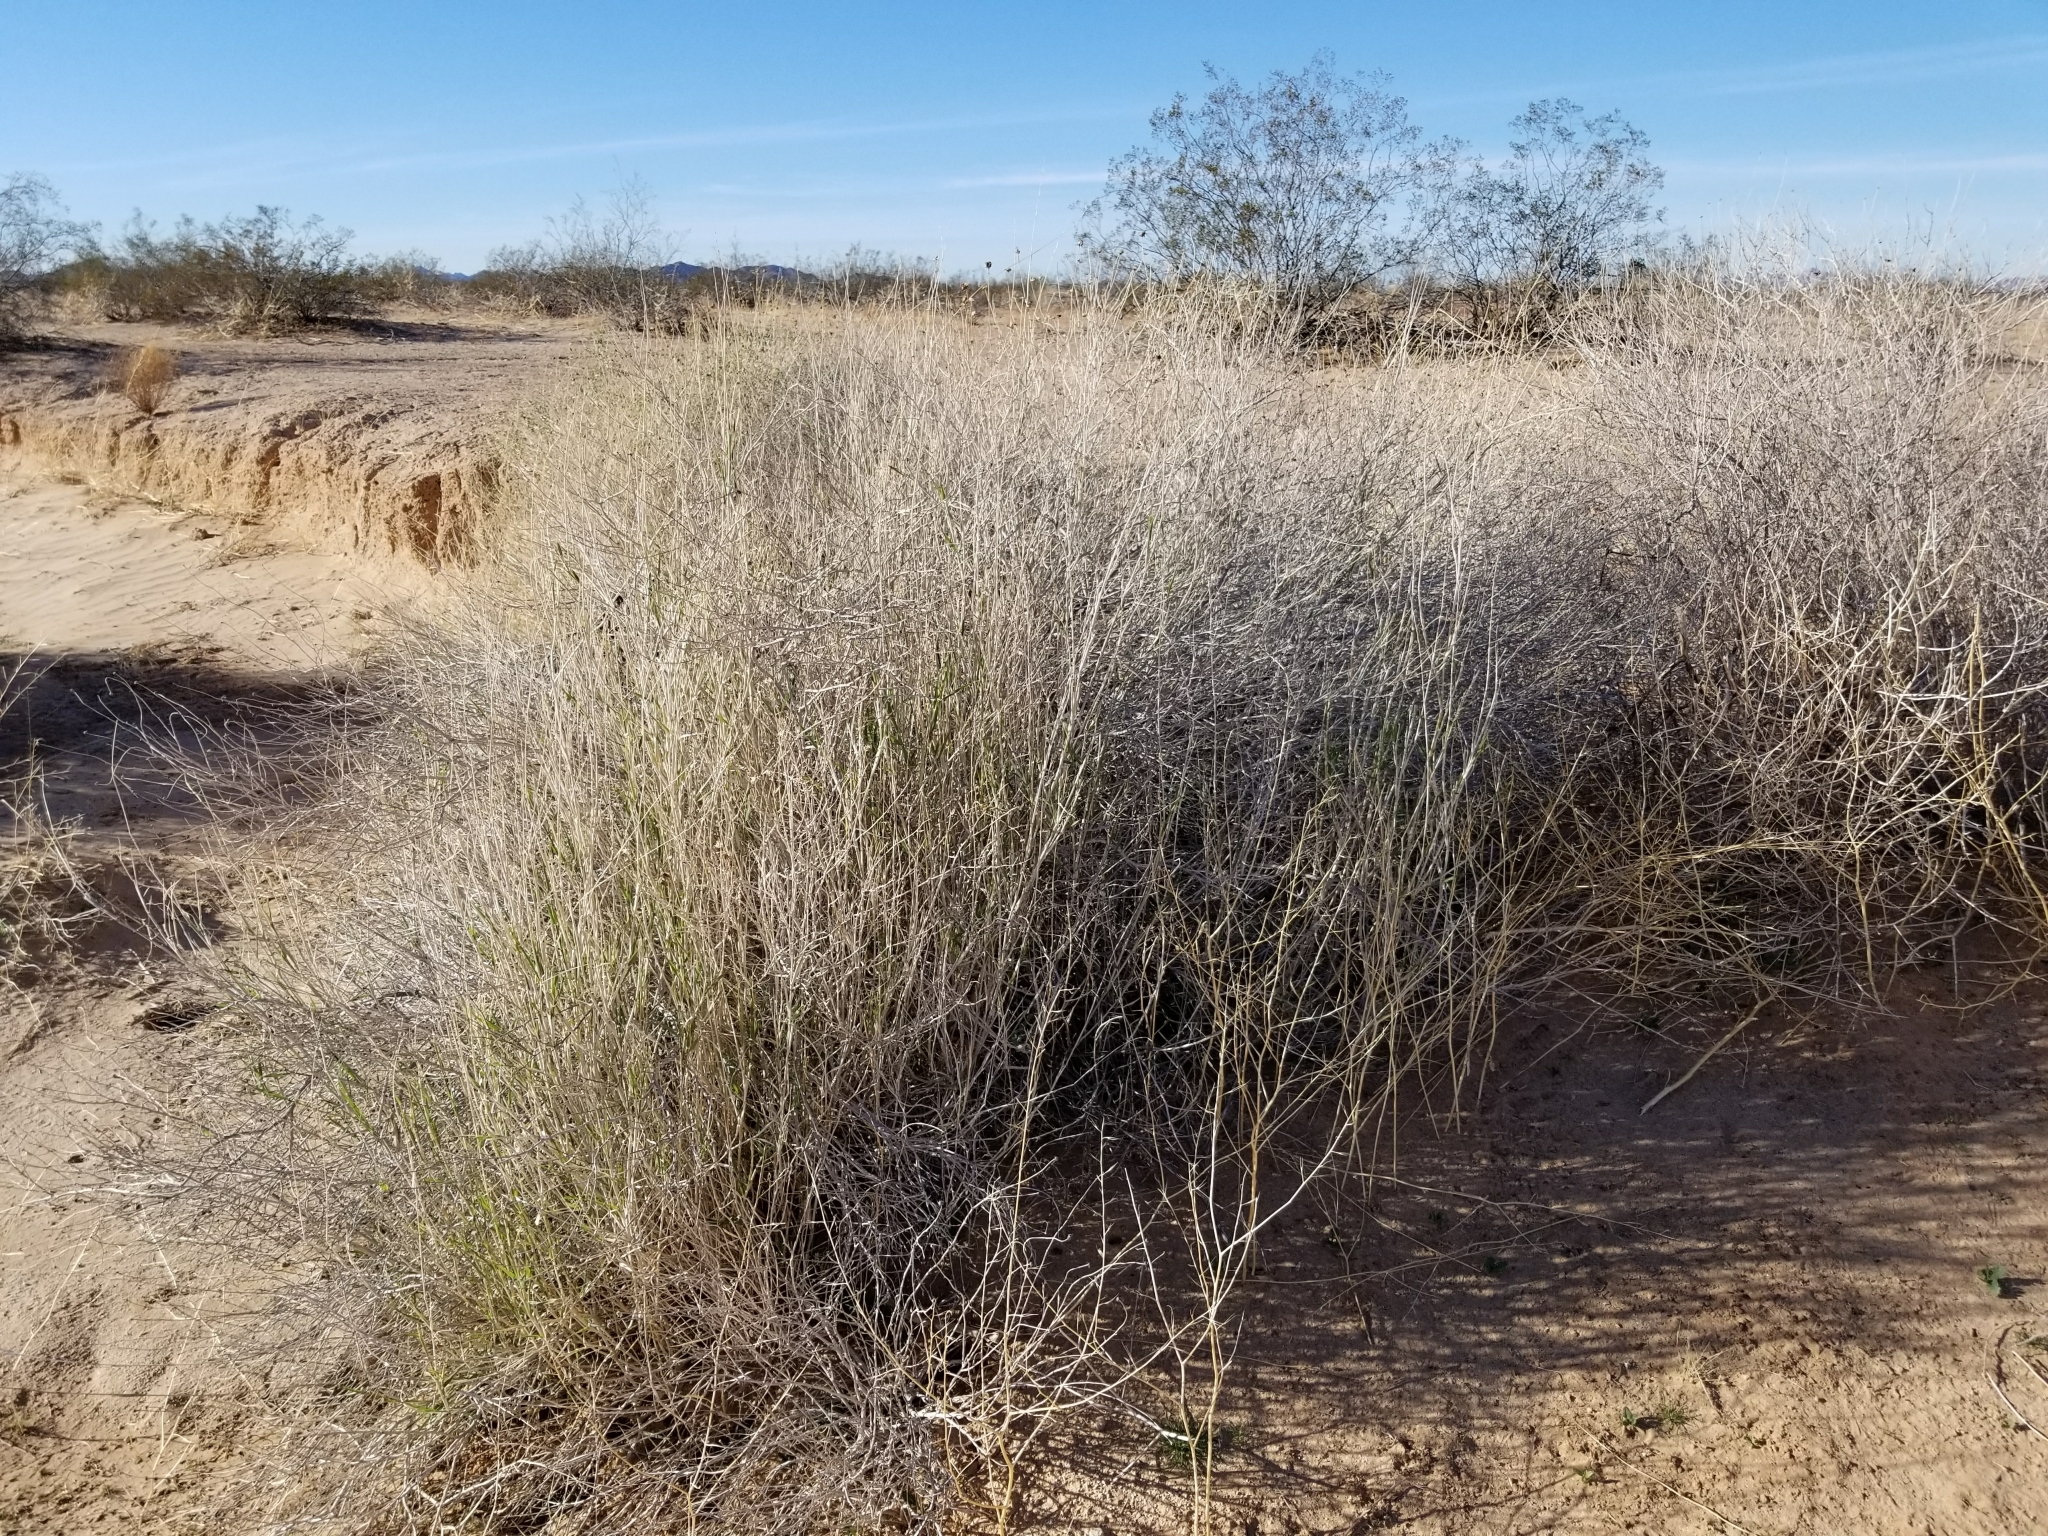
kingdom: Plantae
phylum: Tracheophyta
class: Liliopsida
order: Poales
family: Poaceae
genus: Hilaria
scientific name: Hilaria rigida
